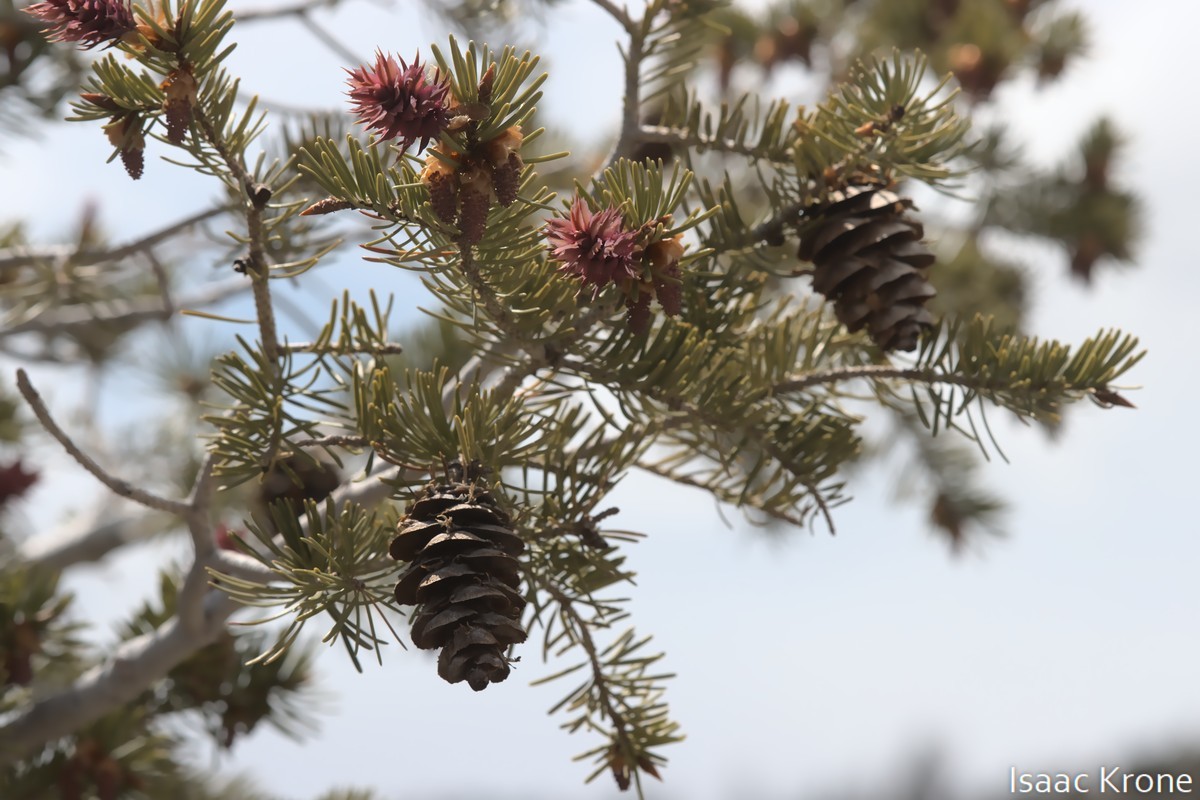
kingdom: Plantae
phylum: Tracheophyta
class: Pinopsida
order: Pinales
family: Pinaceae
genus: Pseudotsuga
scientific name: Pseudotsuga menziesii
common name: Douglas fir
